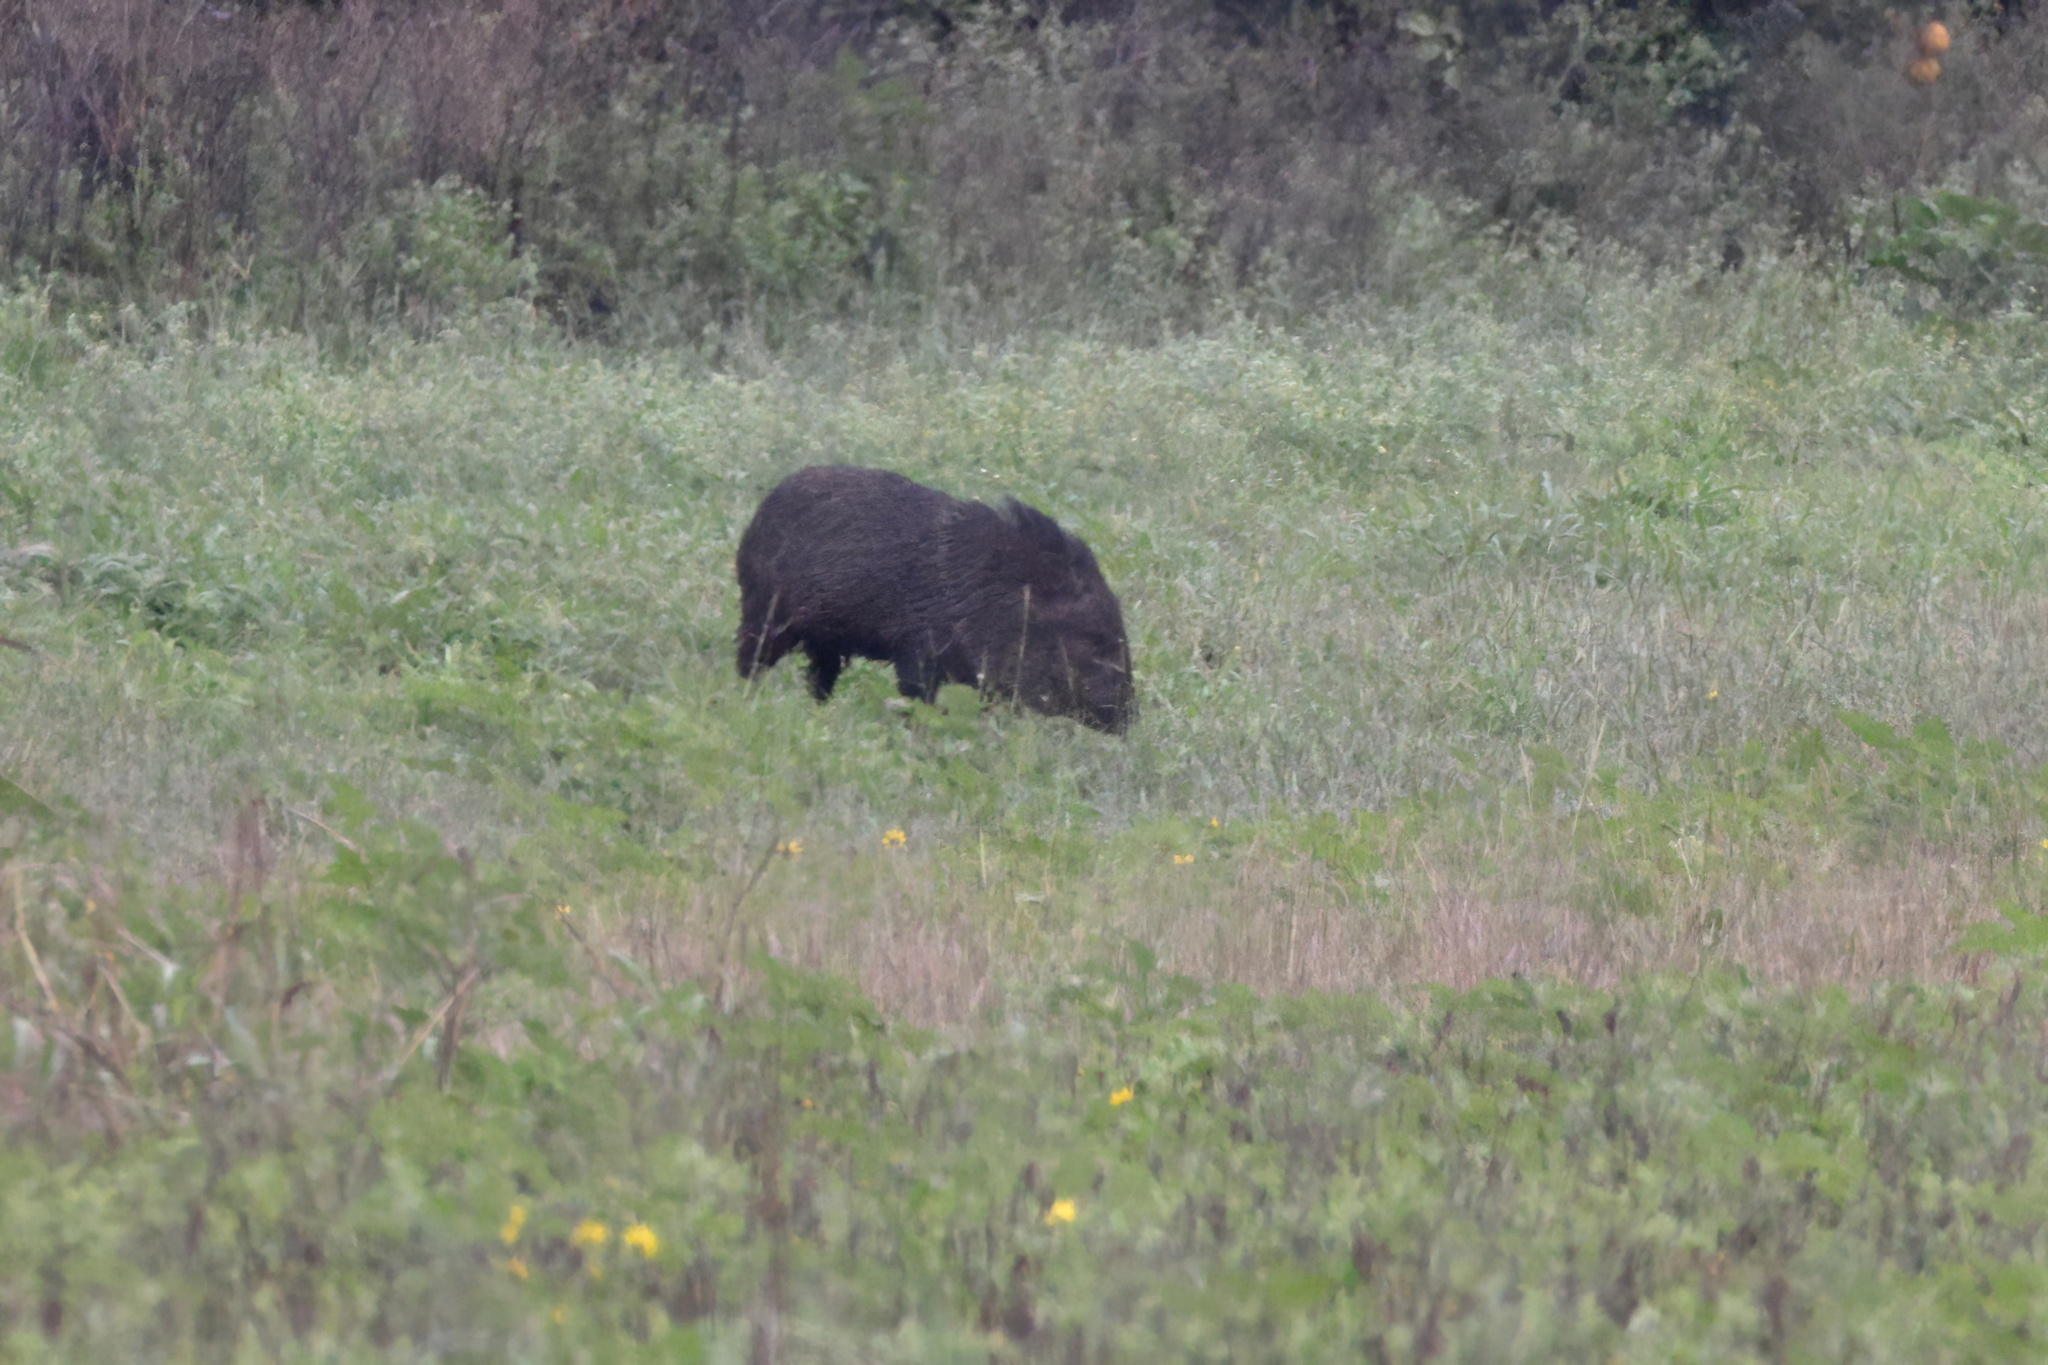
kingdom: Animalia
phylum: Chordata
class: Mammalia
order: Artiodactyla
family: Tayassuidae
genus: Pecari
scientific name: Pecari tajacu
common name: Collared peccary
